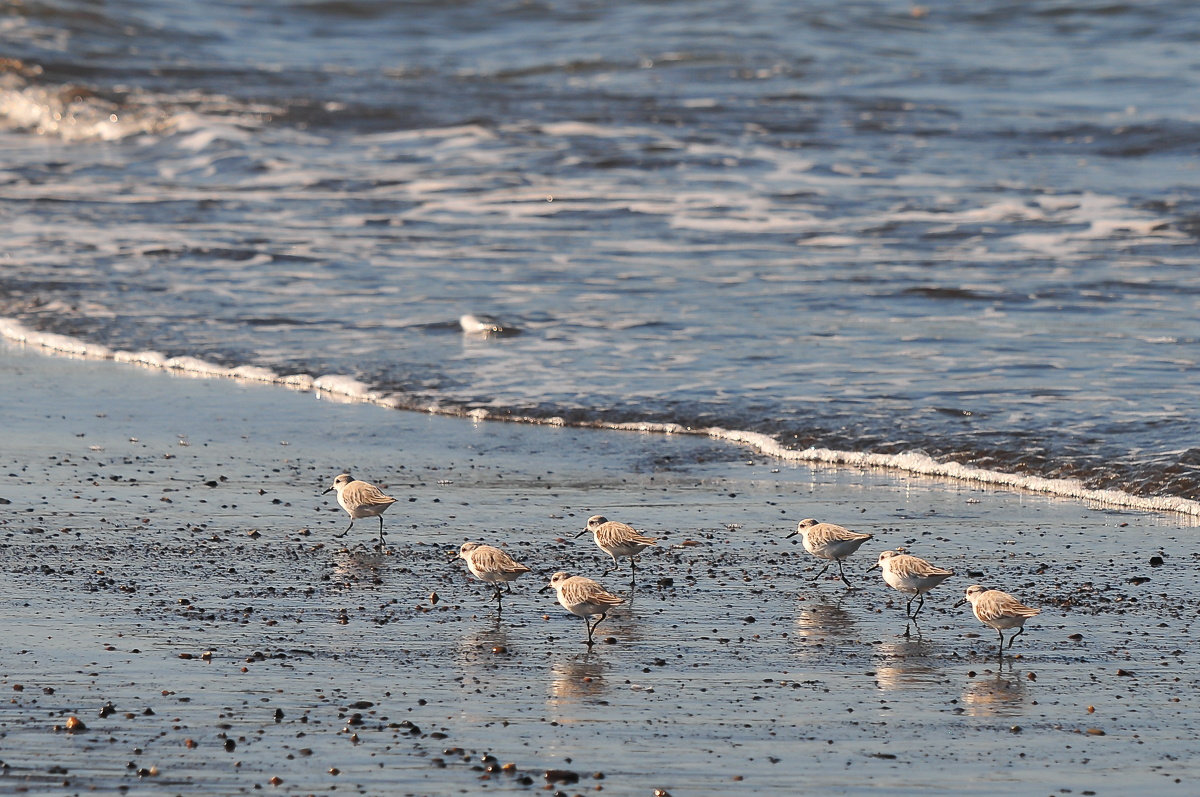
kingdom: Animalia
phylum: Chordata
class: Aves
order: Charadriiformes
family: Scolopacidae
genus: Calidris
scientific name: Calidris alba
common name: Sanderling
